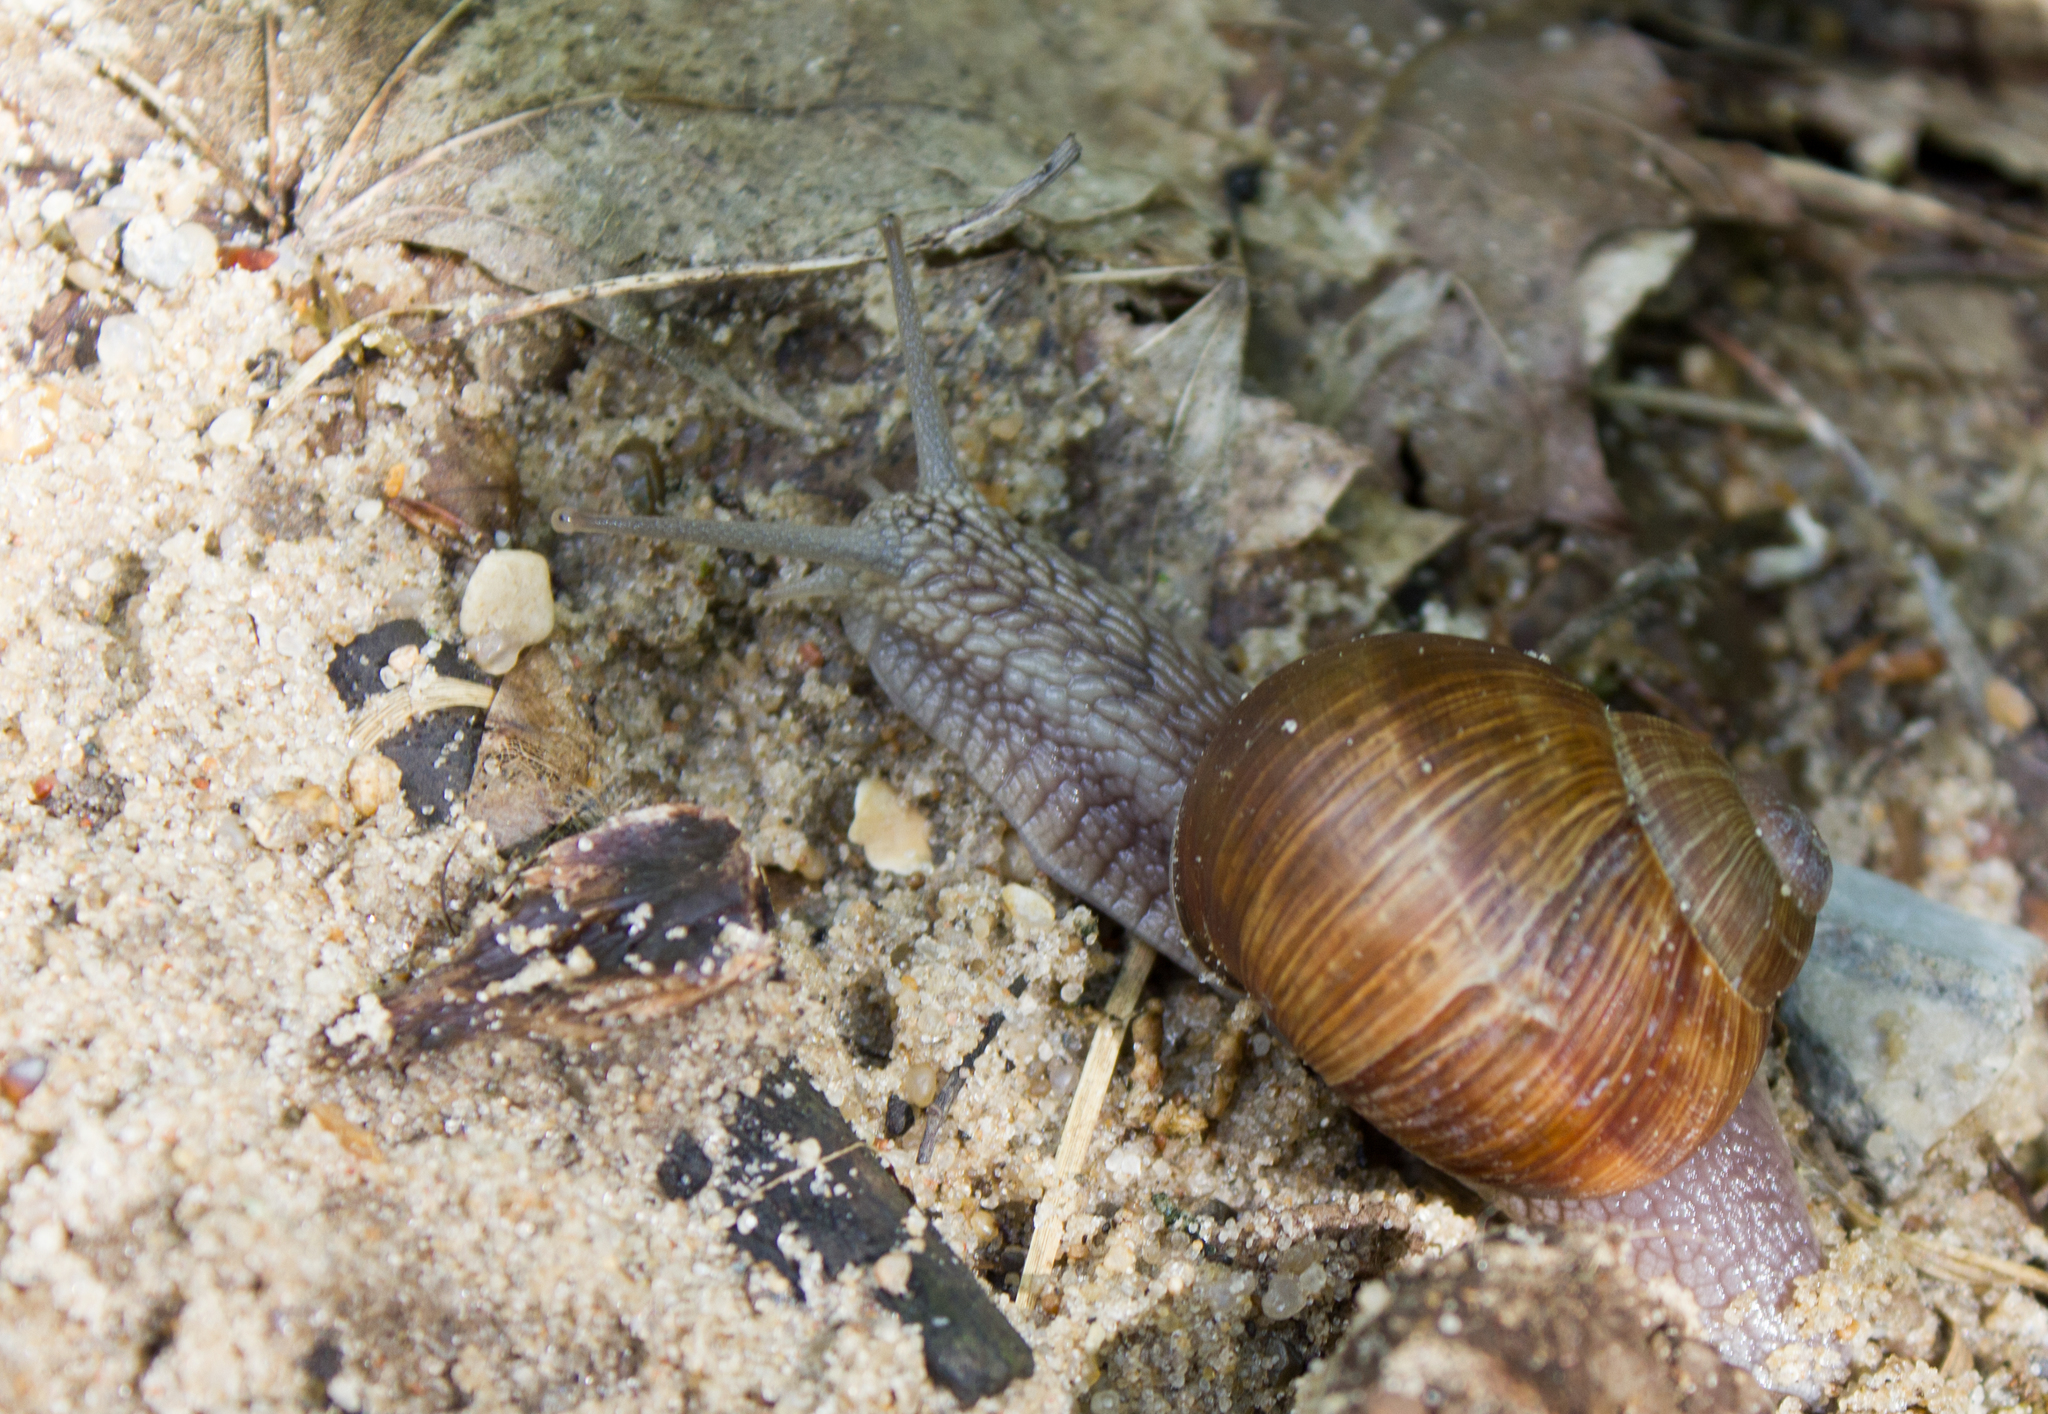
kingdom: Animalia
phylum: Mollusca
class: Gastropoda
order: Stylommatophora
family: Helicidae
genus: Helix
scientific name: Helix pomatia
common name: Roman snail
